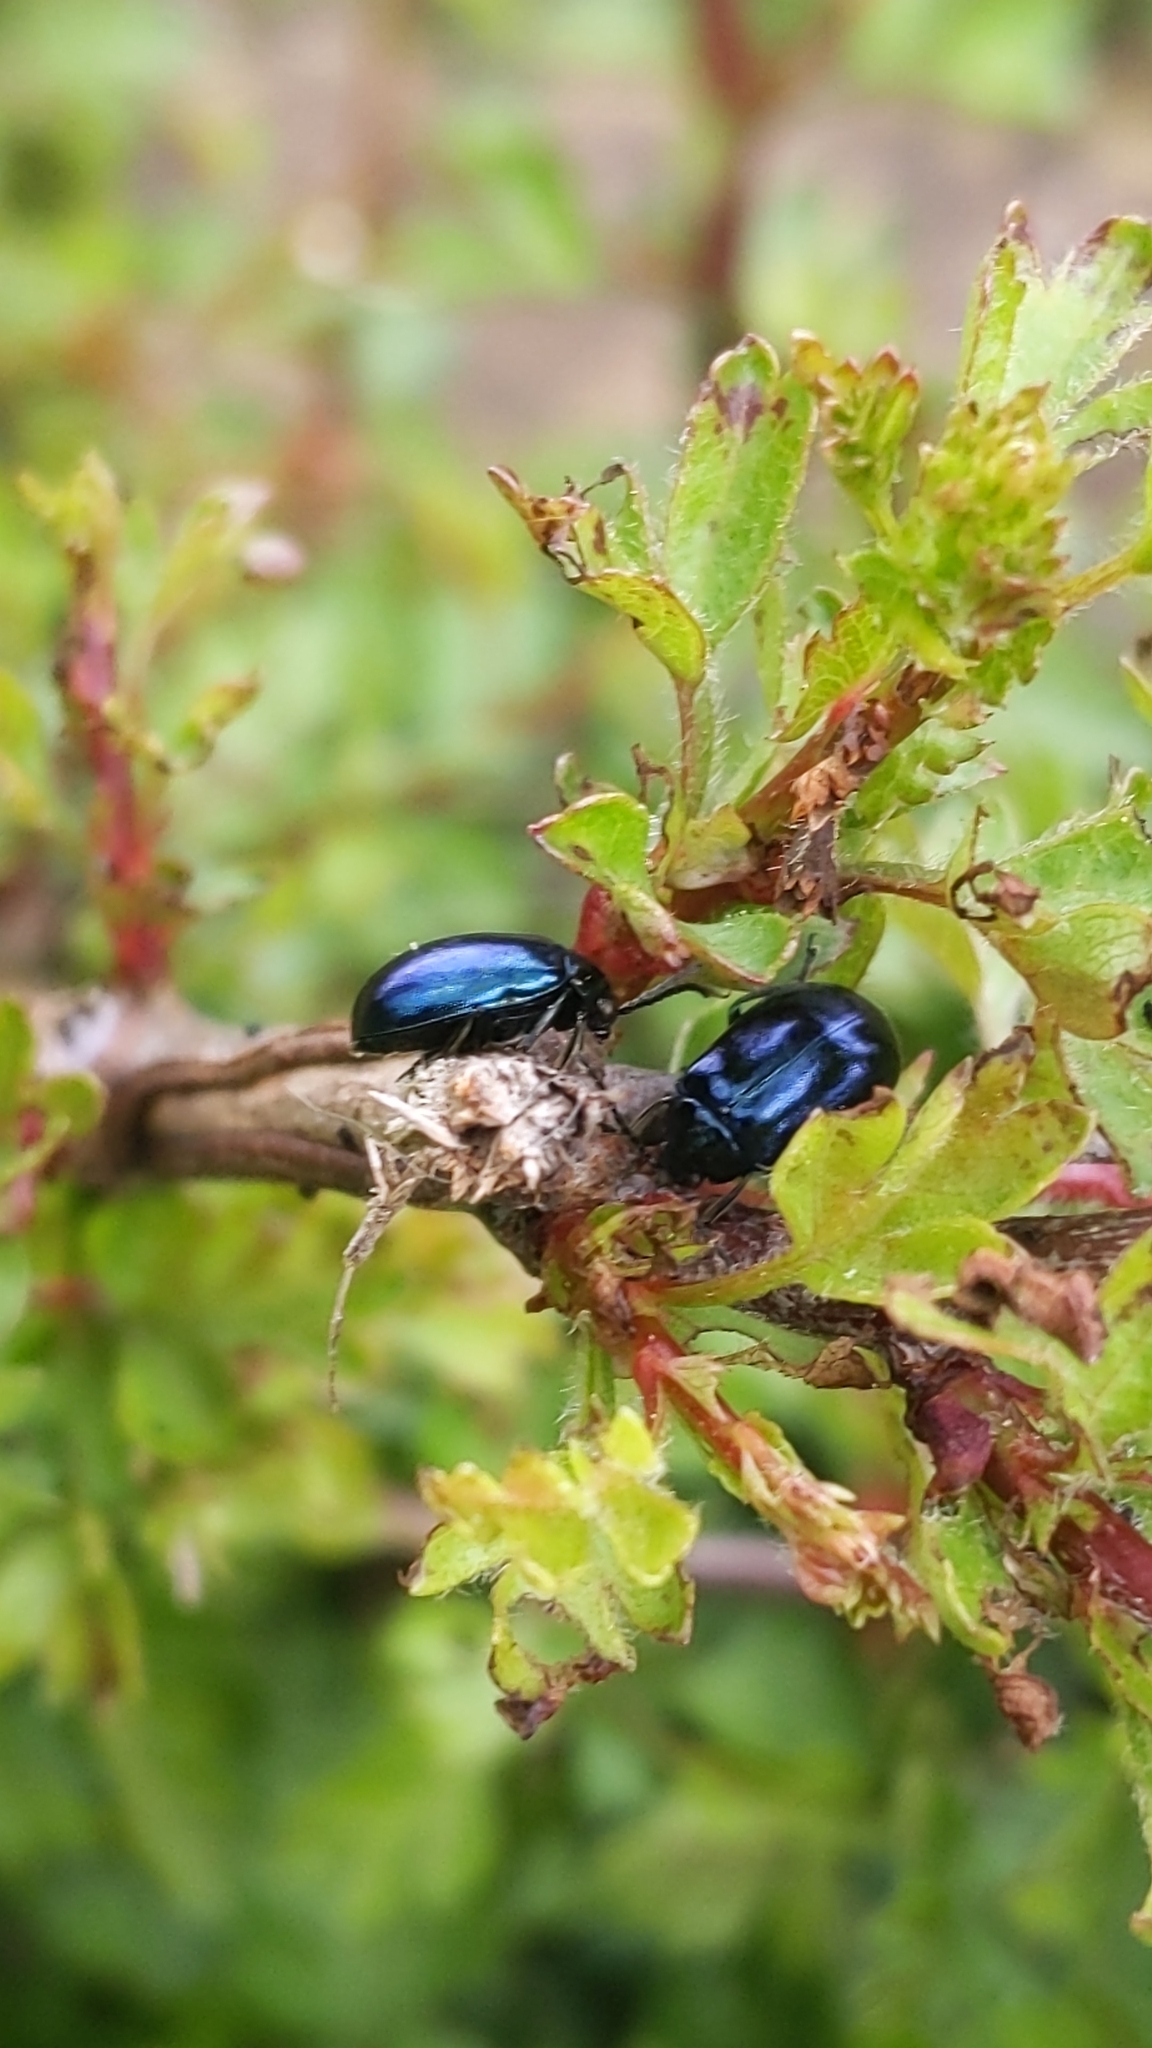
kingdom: Animalia
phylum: Arthropoda
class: Insecta
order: Coleoptera
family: Chrysomelidae
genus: Agelastica
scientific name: Agelastica alni
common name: Alder leaf beetle
